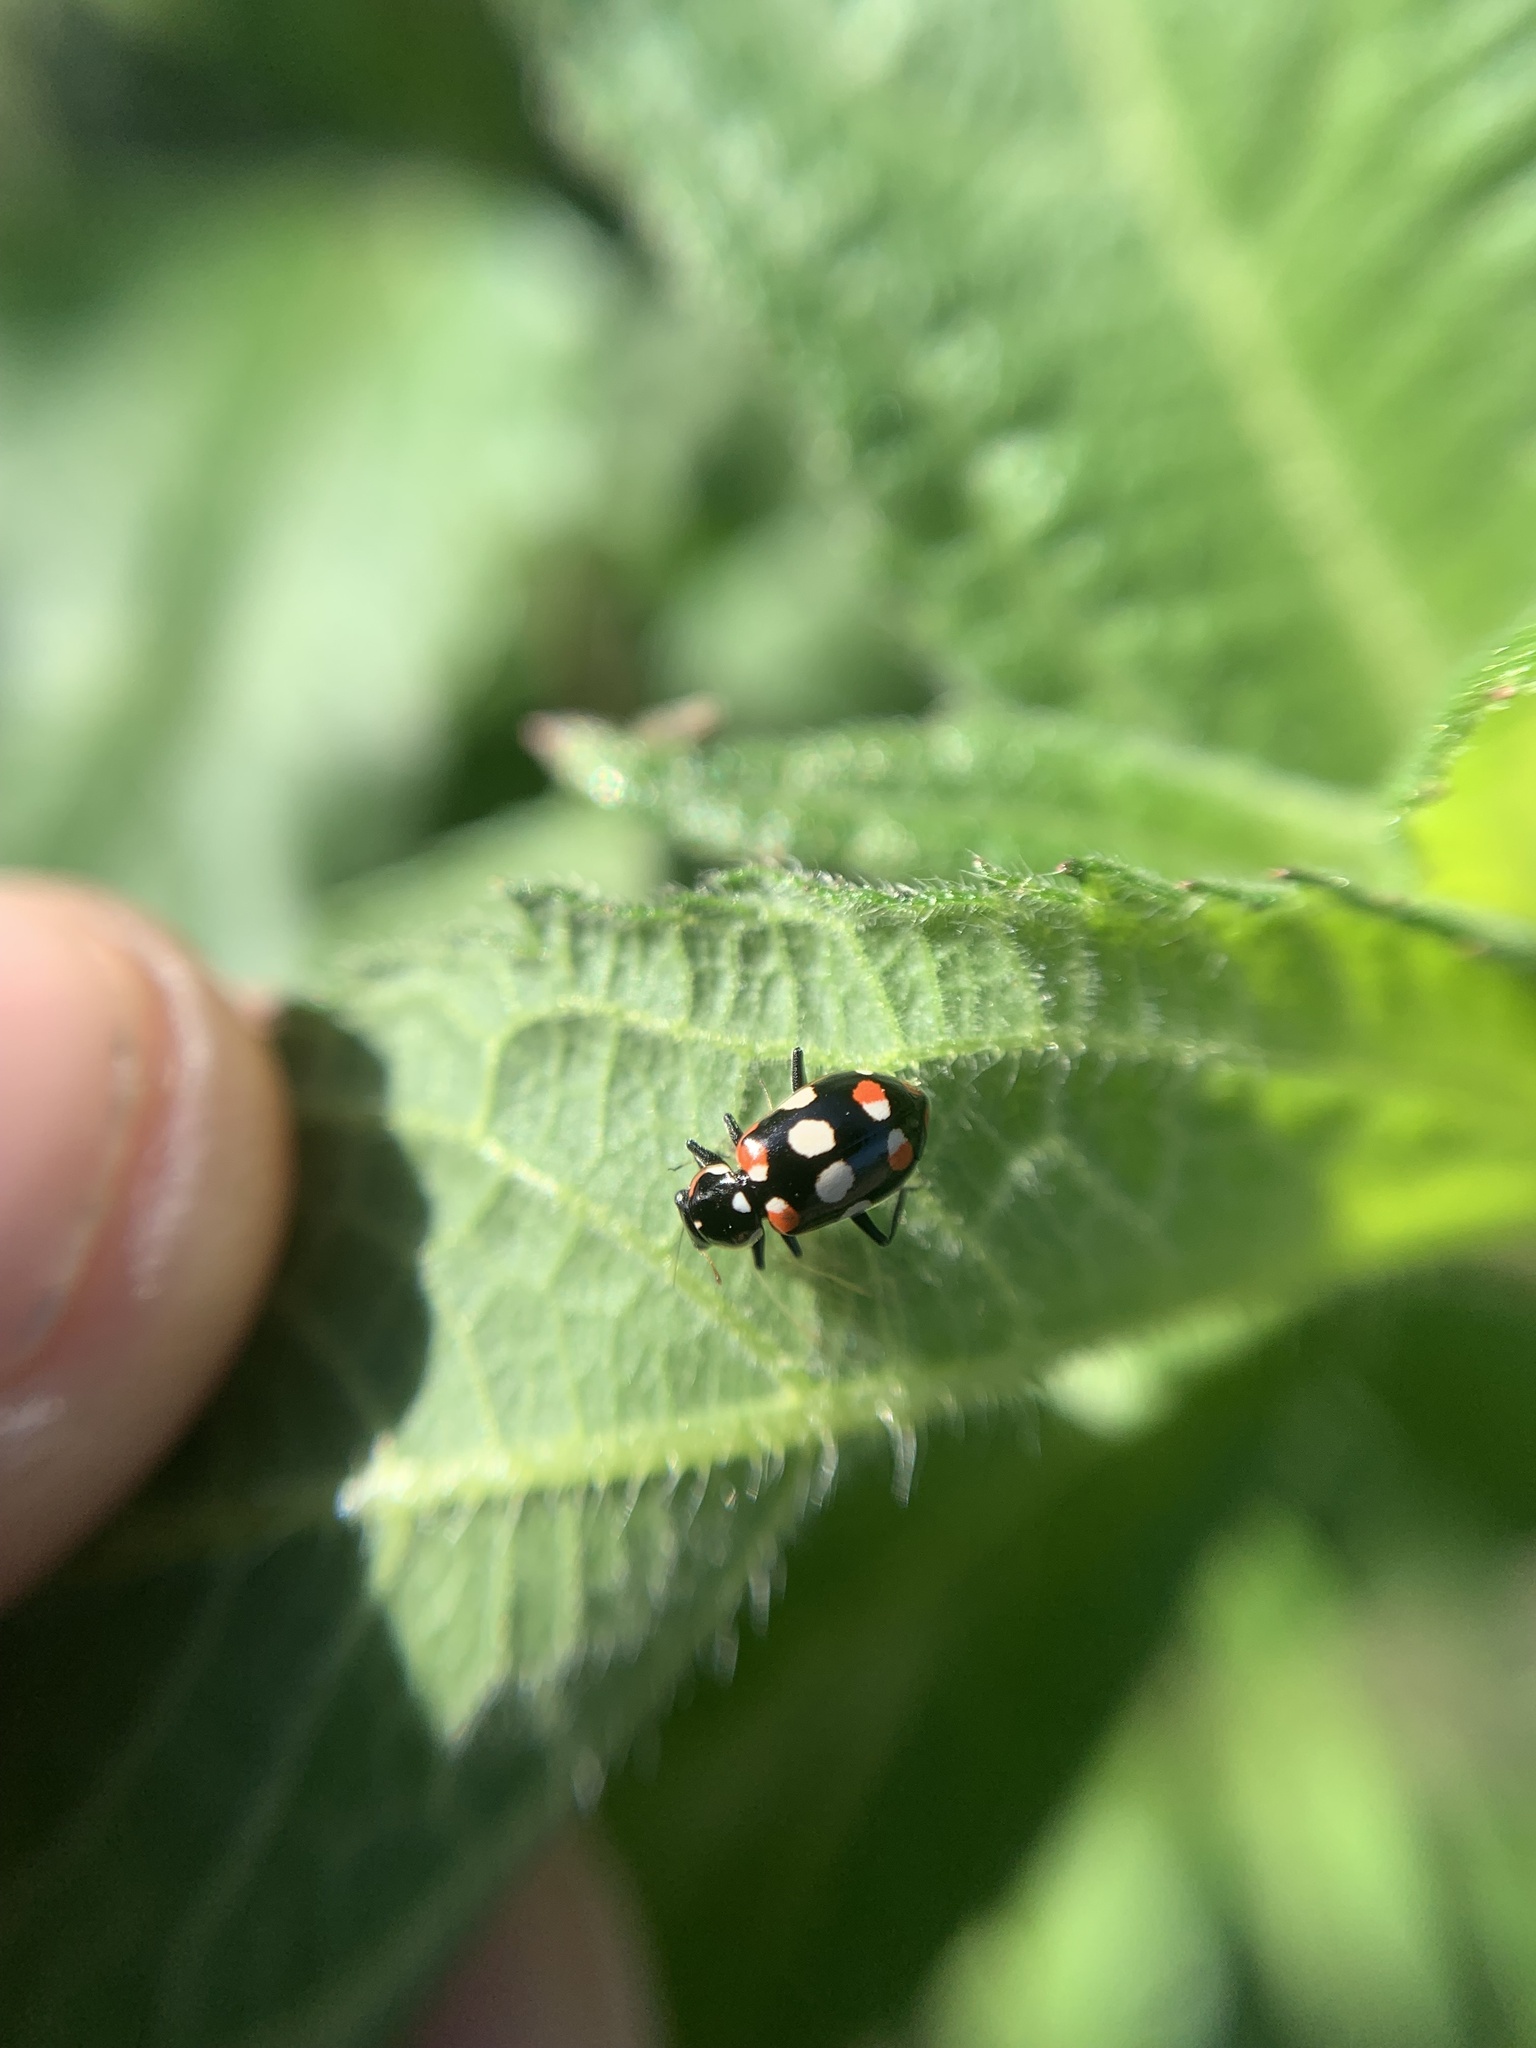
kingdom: Animalia
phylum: Arthropoda
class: Insecta
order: Coleoptera
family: Coccinellidae
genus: Eriopis
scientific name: Eriopis connexa
